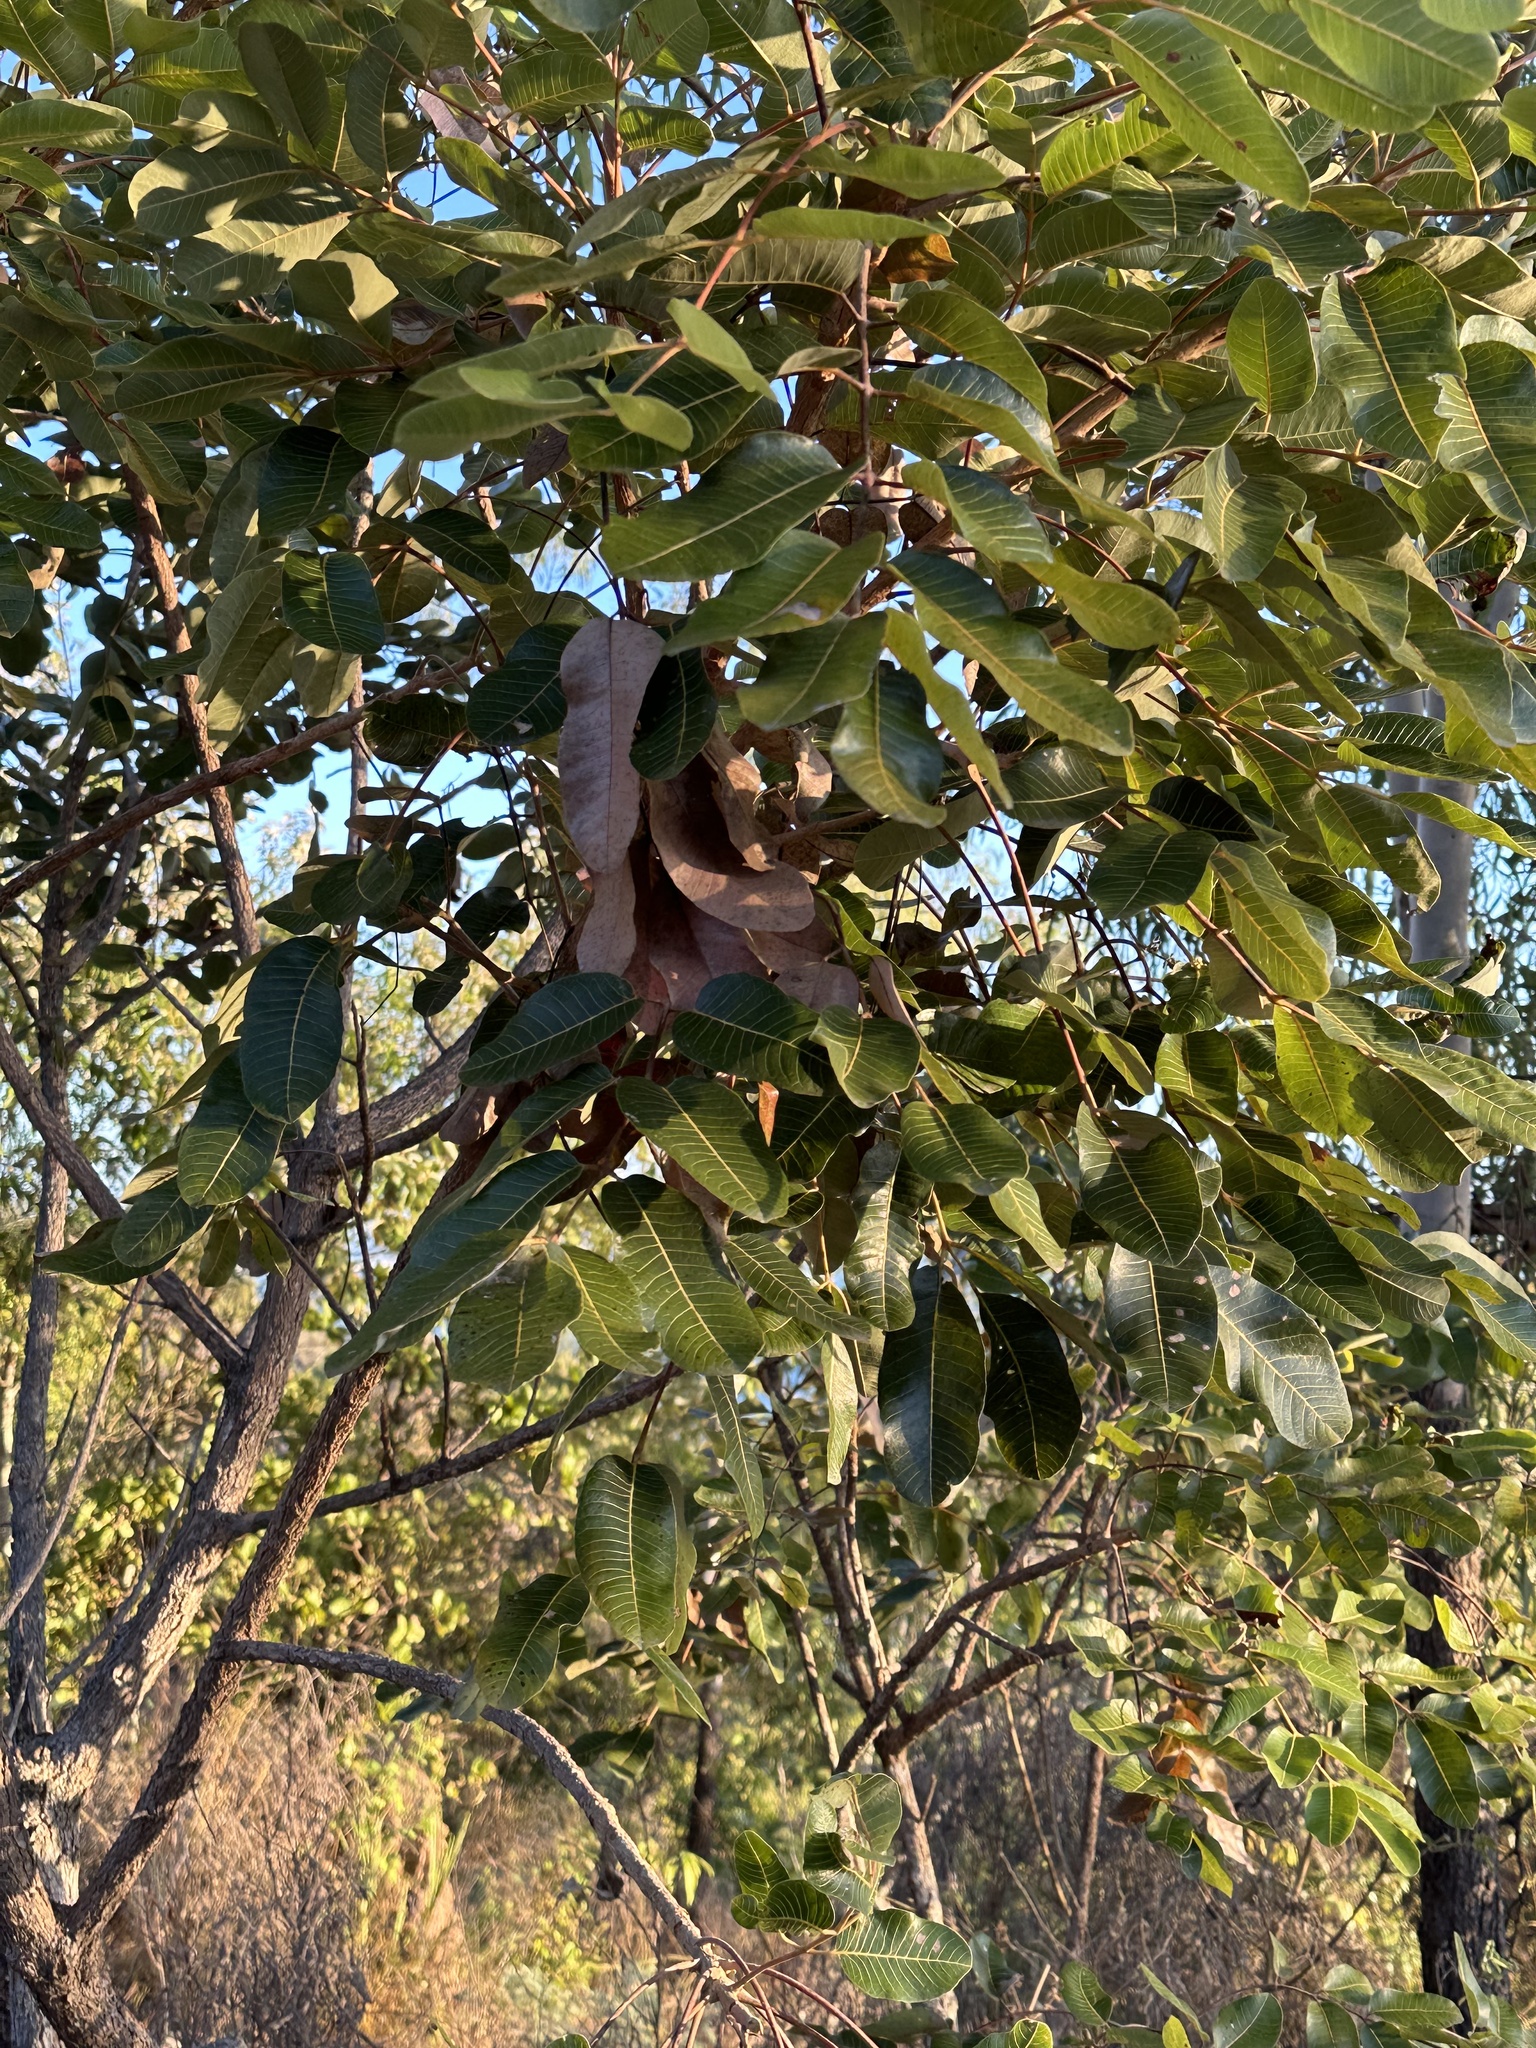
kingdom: Plantae
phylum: Tracheophyta
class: Magnoliopsida
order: Sapindales
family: Burseraceae
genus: Canarium
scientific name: Canarium australianum
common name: Island white-beech
